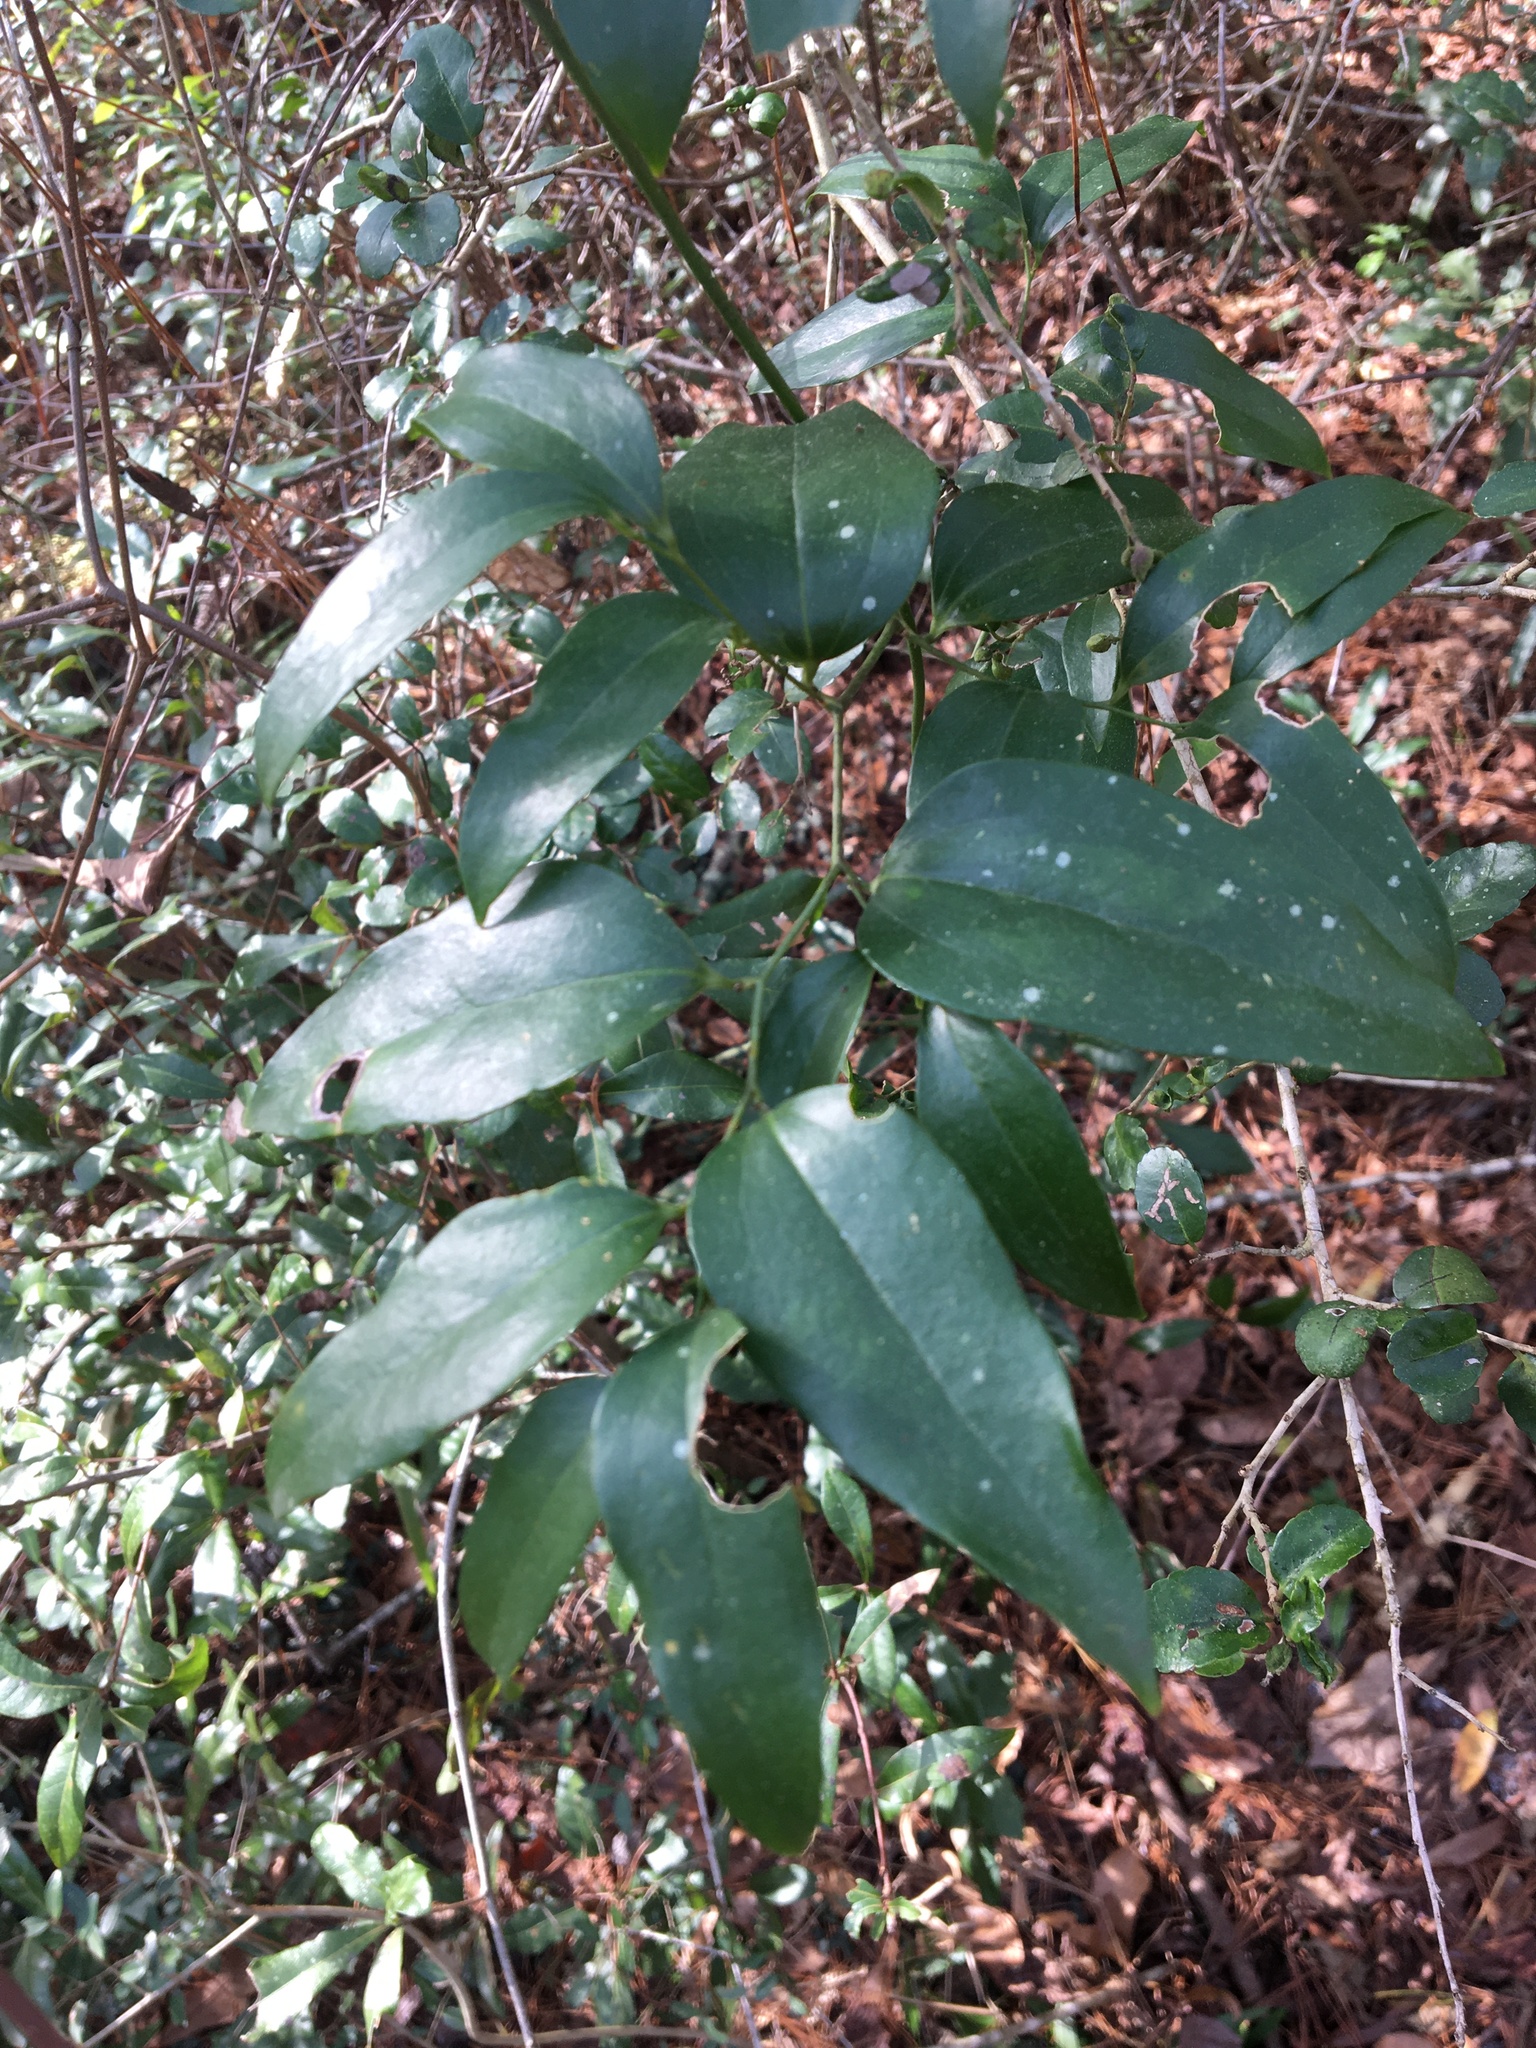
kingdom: Plantae
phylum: Tracheophyta
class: Liliopsida
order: Liliales
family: Smilacaceae
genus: Smilax
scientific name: Smilax maritima
